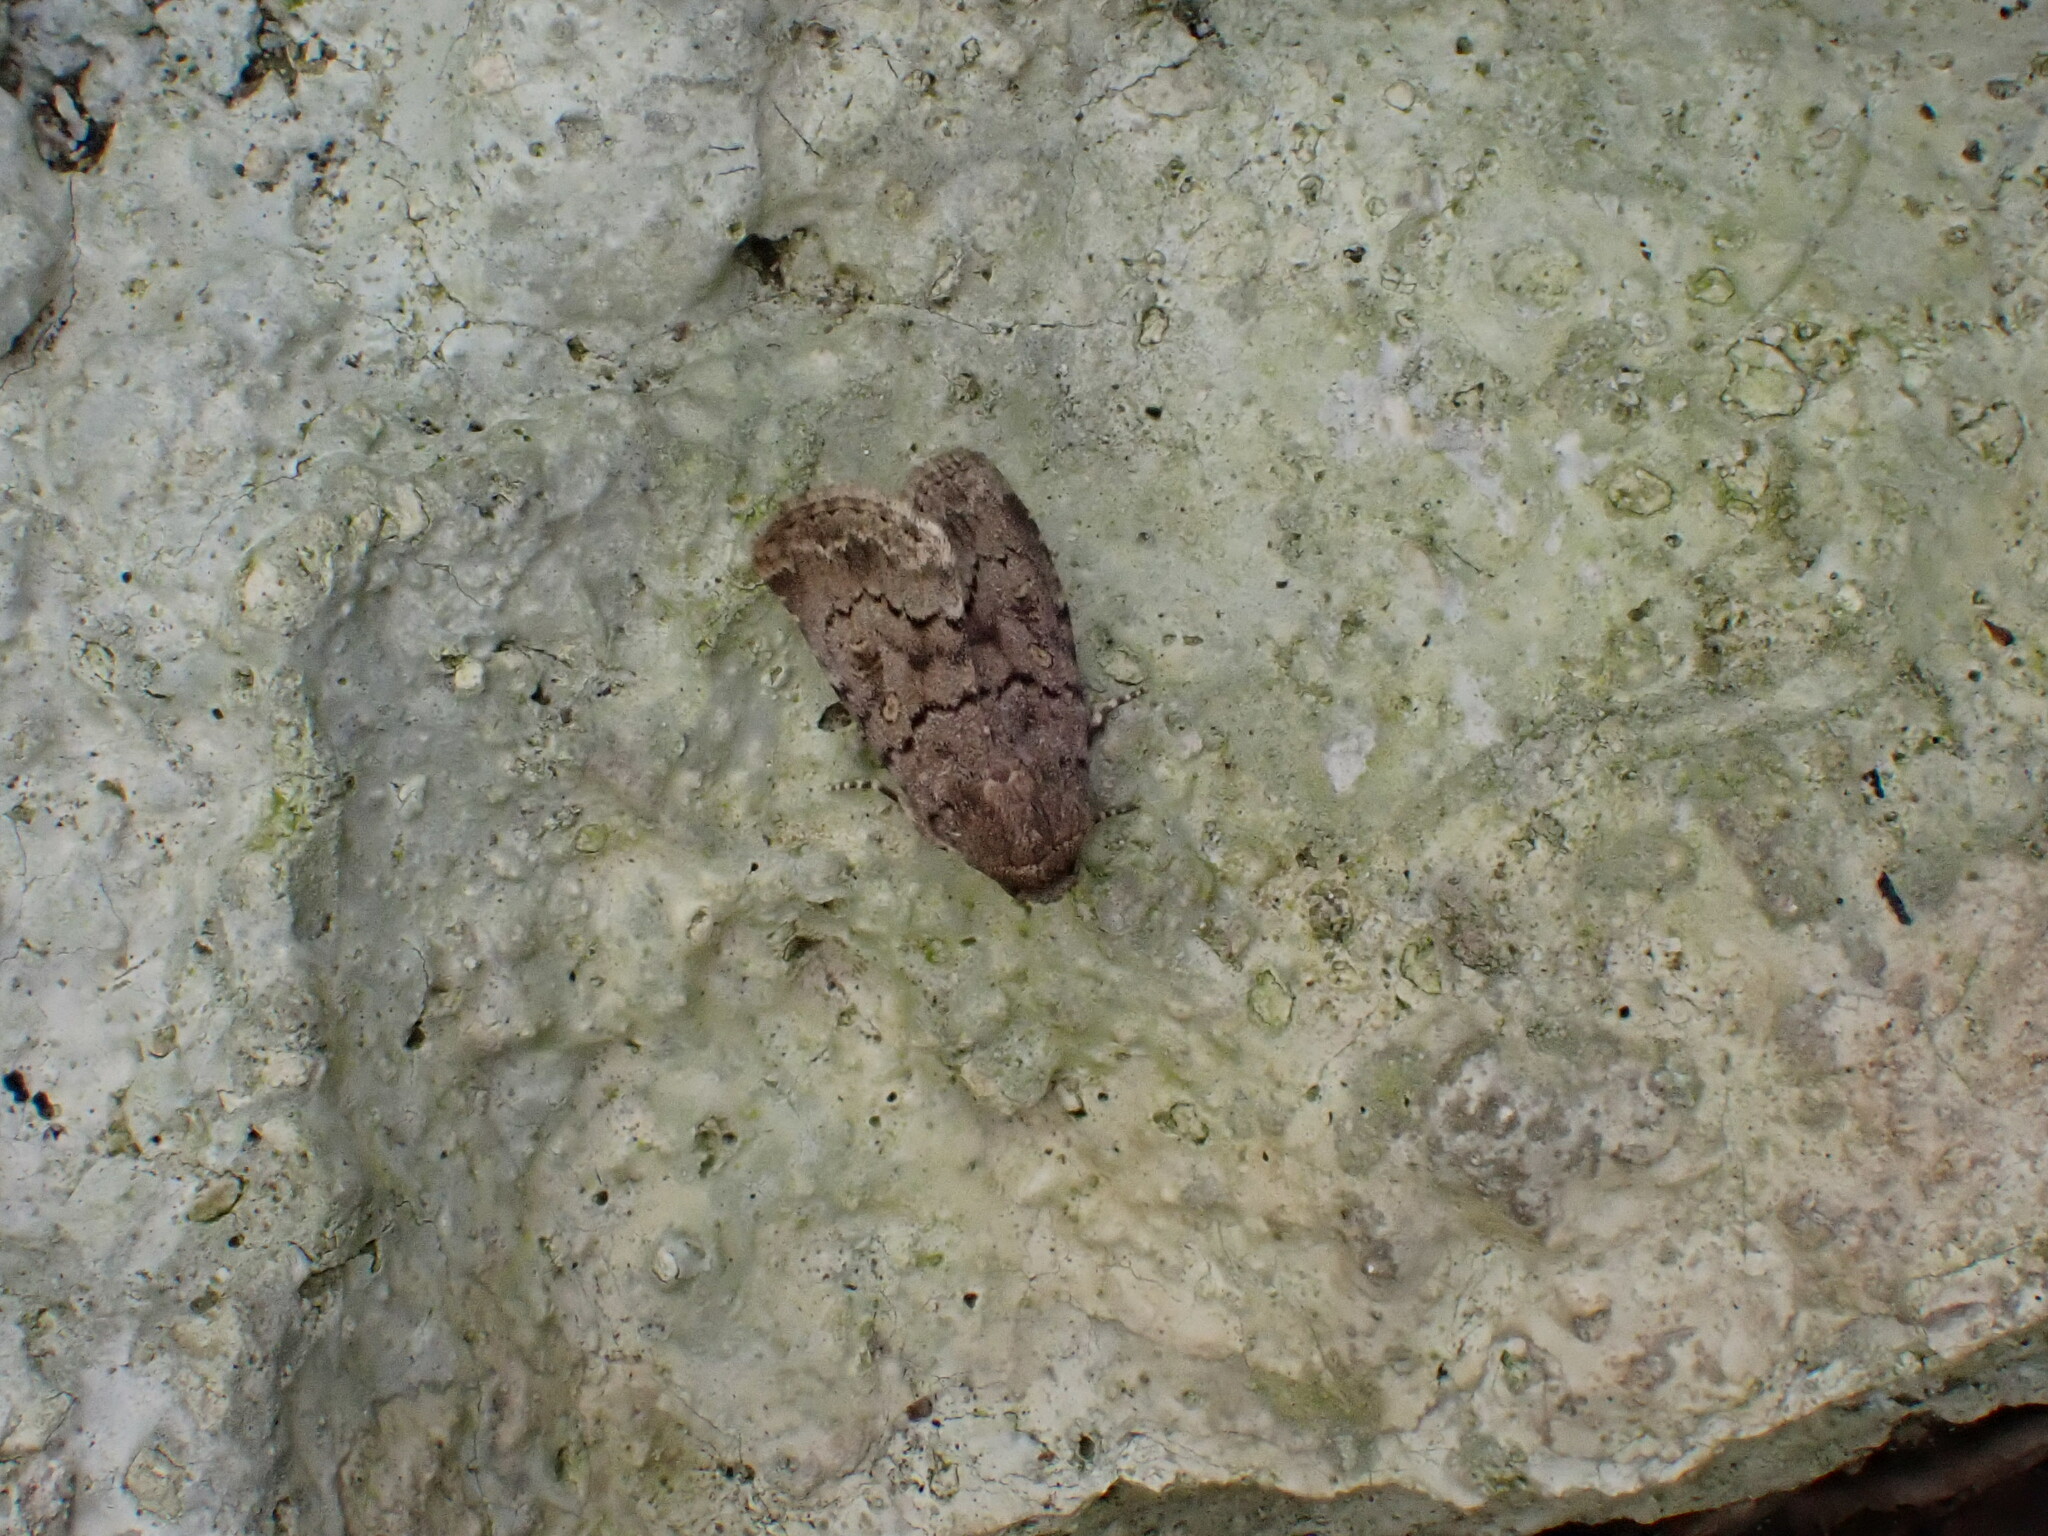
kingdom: Animalia
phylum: Arthropoda
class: Insecta
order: Lepidoptera
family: Noctuidae
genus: Spodoptera
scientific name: Spodoptera cilium
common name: Dark mottled willow
